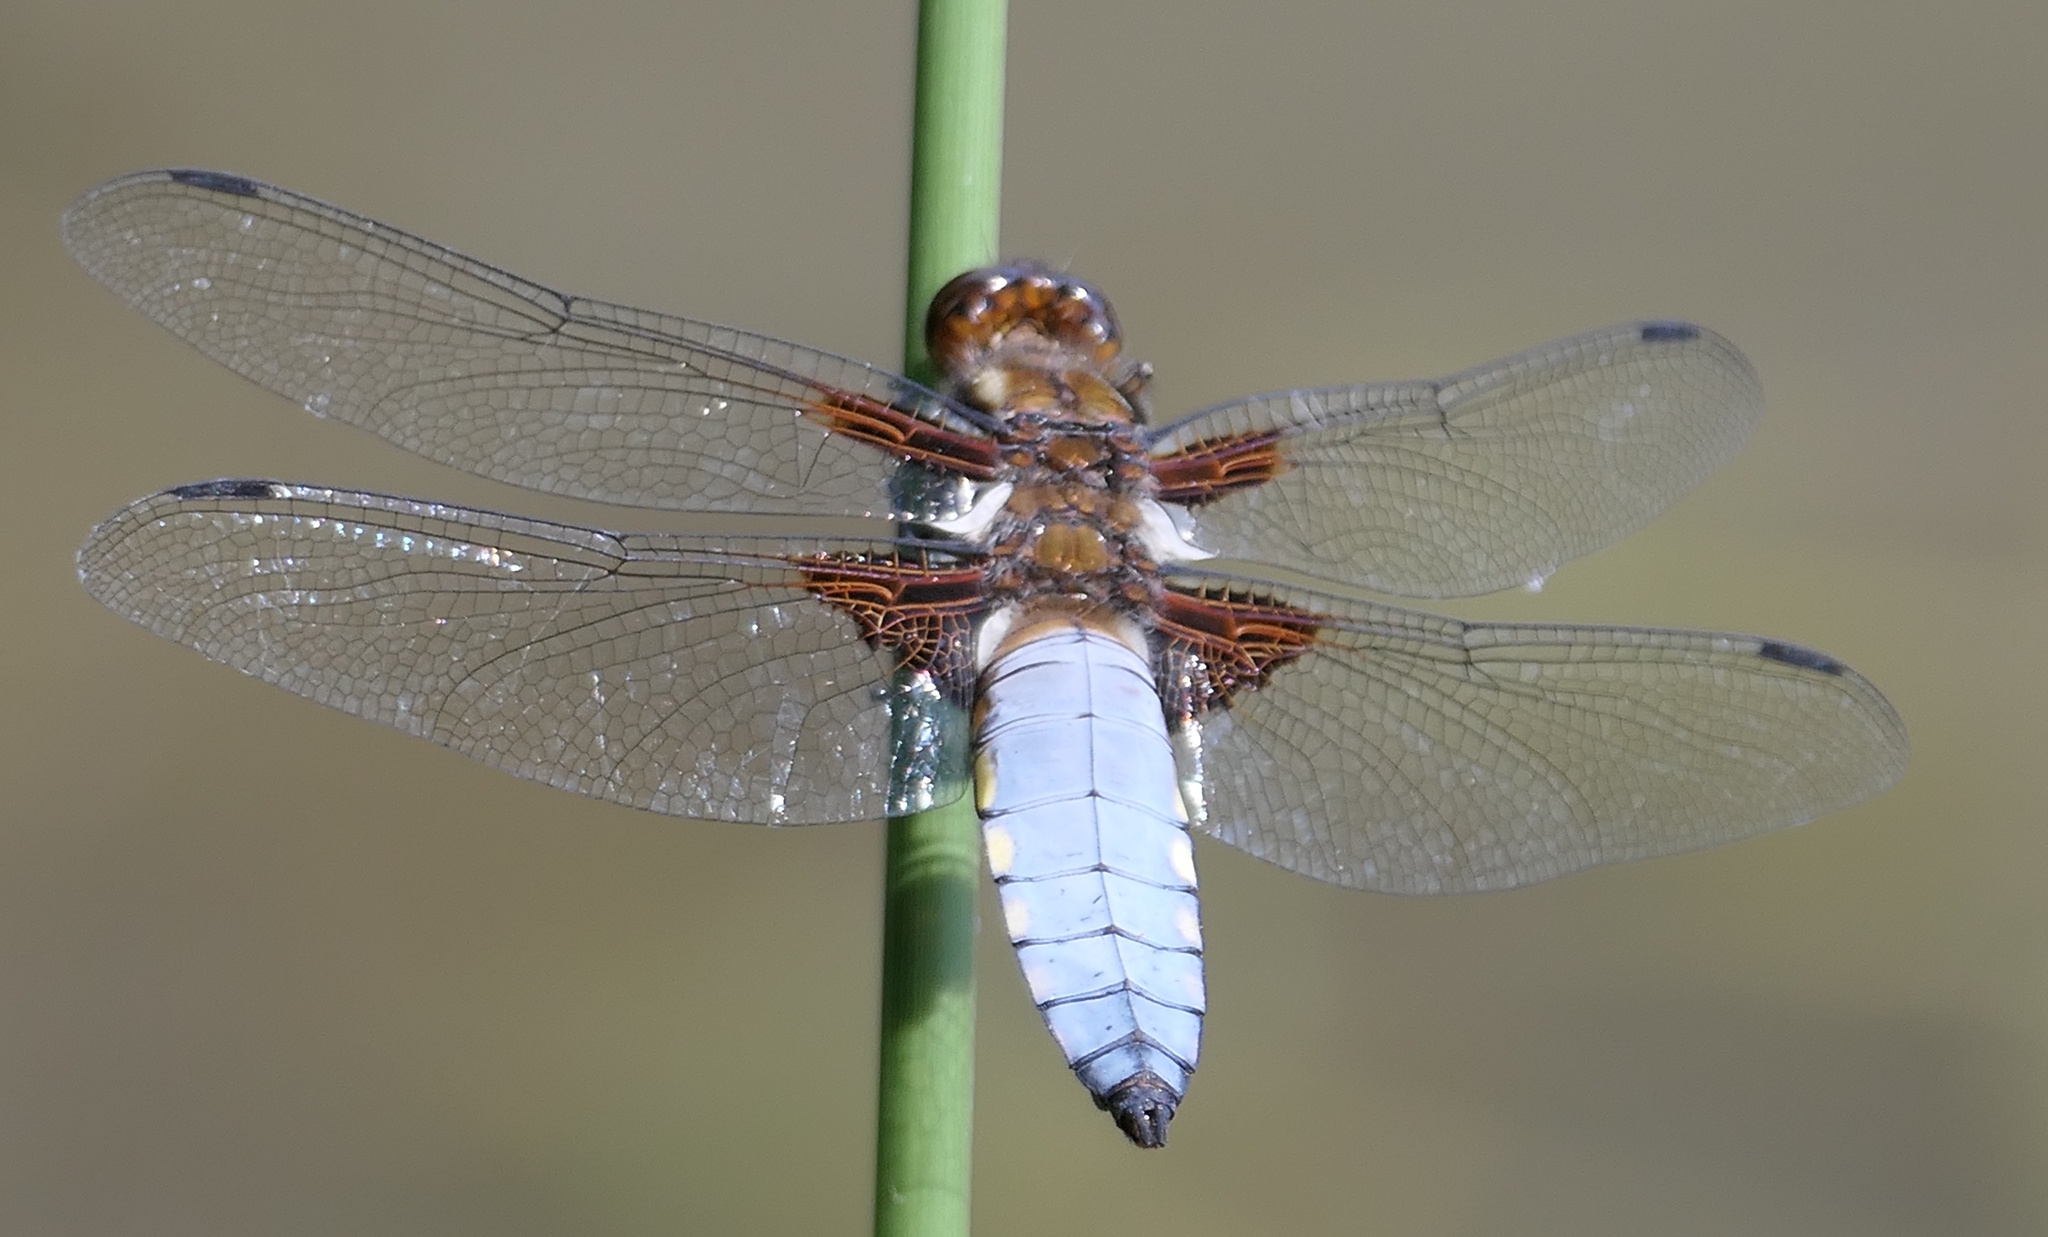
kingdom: Animalia
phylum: Arthropoda
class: Insecta
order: Odonata
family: Libellulidae
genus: Libellula
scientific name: Libellula depressa
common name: Broad-bodied chaser
